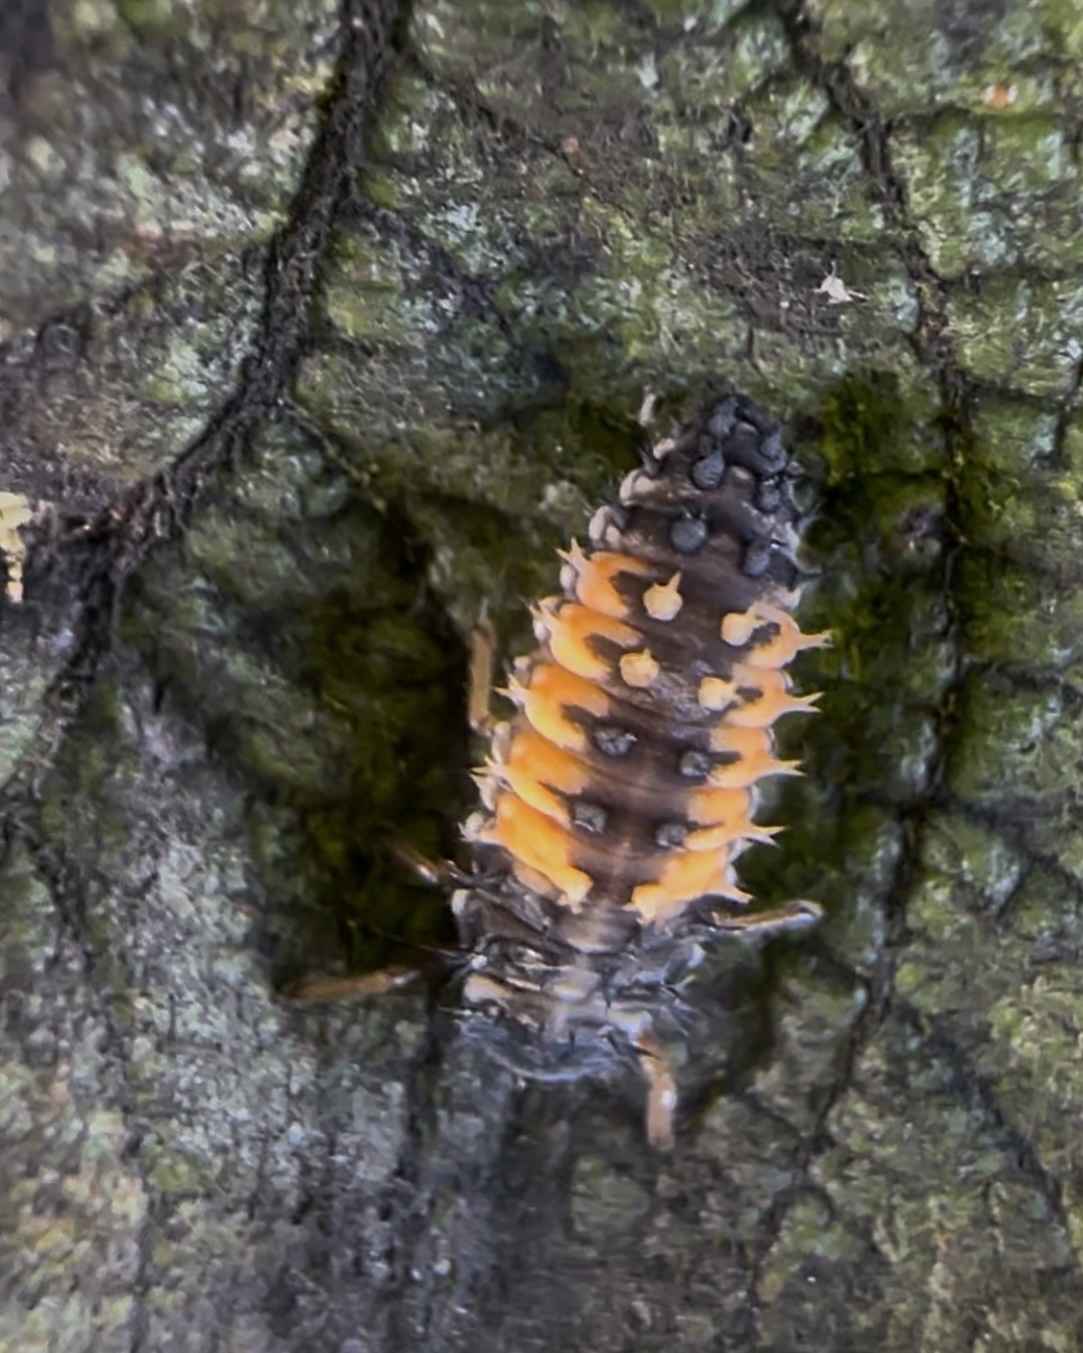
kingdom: Animalia
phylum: Arthropoda
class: Insecta
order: Coleoptera
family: Coccinellidae
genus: Harmonia
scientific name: Harmonia axyridis
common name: Harlequin ladybird
